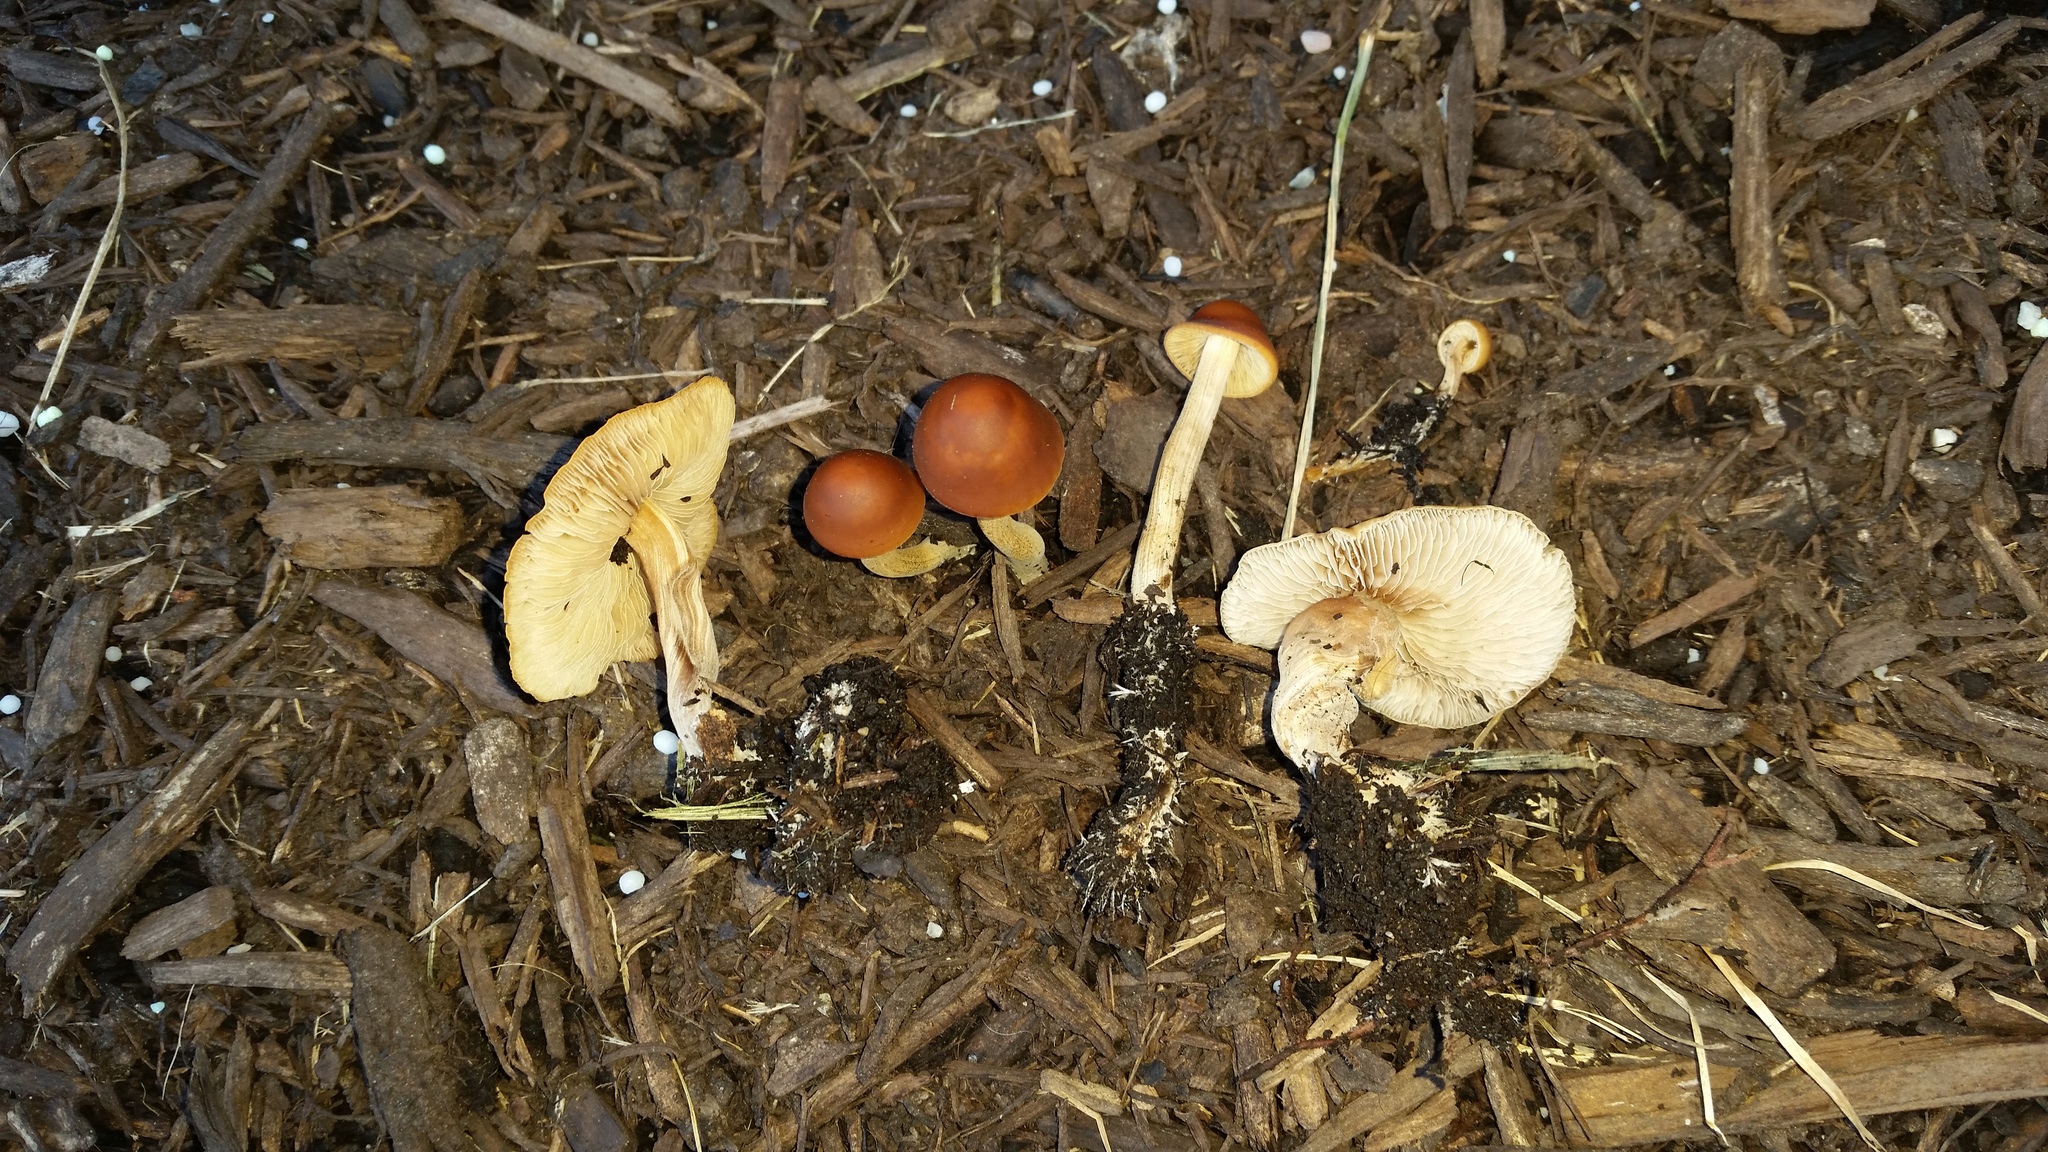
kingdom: Fungi
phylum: Basidiomycota
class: Agaricomycetes
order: Agaricales
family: Strophariaceae
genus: Agrocybe
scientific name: Agrocybe arvalis
